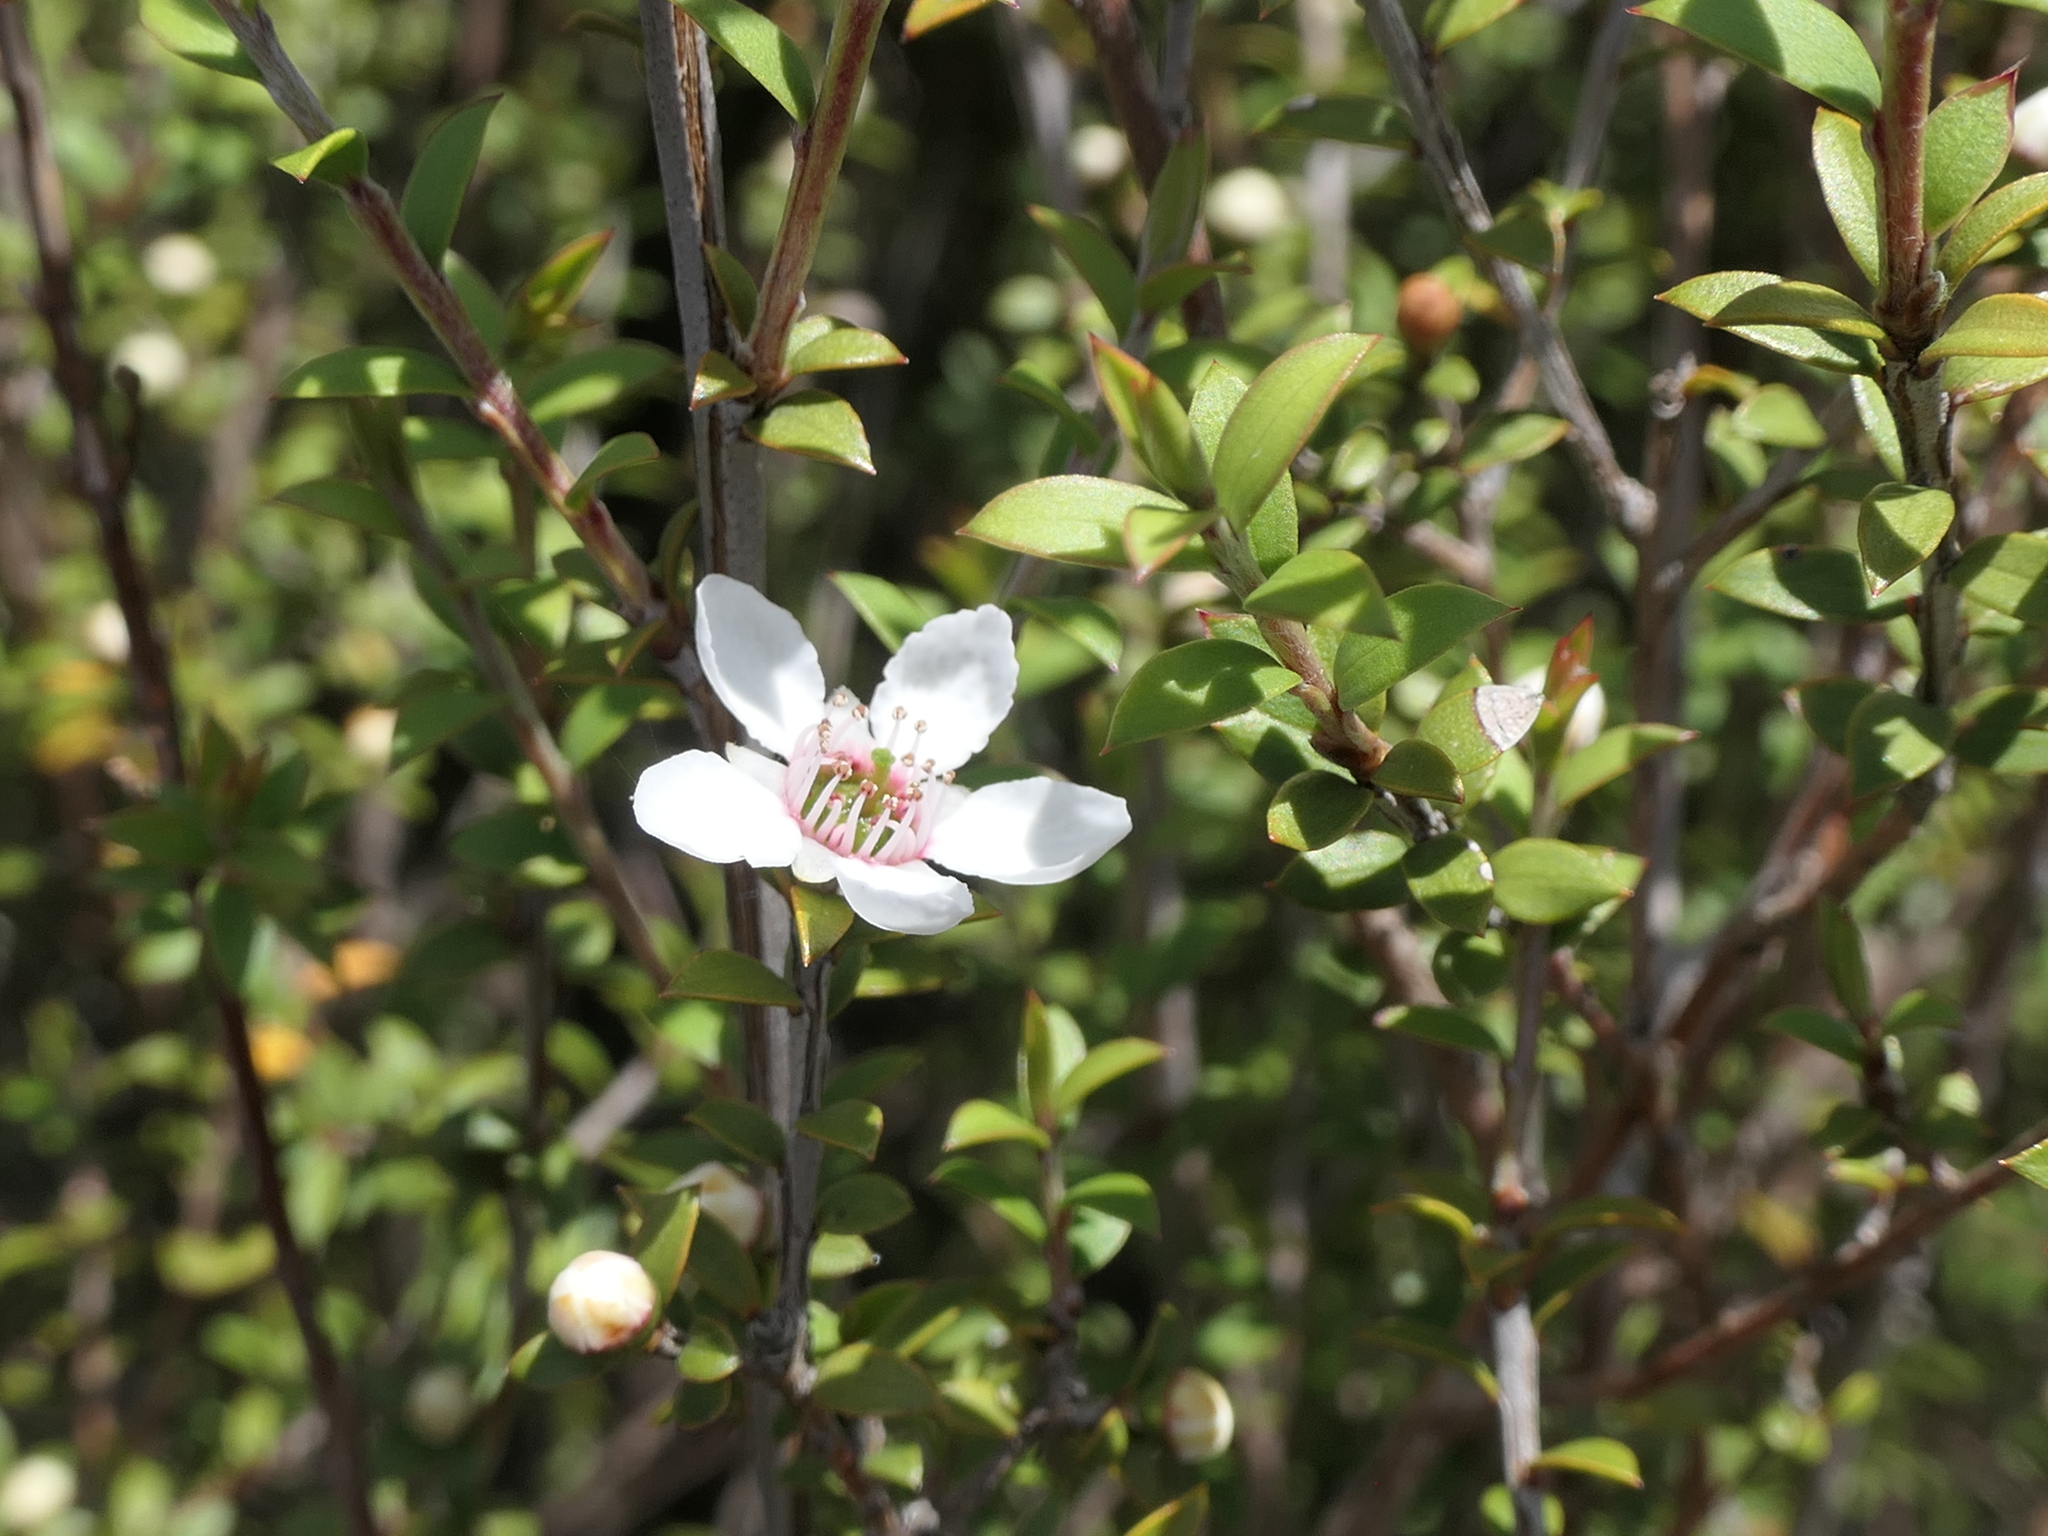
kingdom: Plantae
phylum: Tracheophyta
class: Magnoliopsida
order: Myrtales
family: Myrtaceae
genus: Leptospermum
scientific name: Leptospermum scoparium
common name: Broom tea-tree
